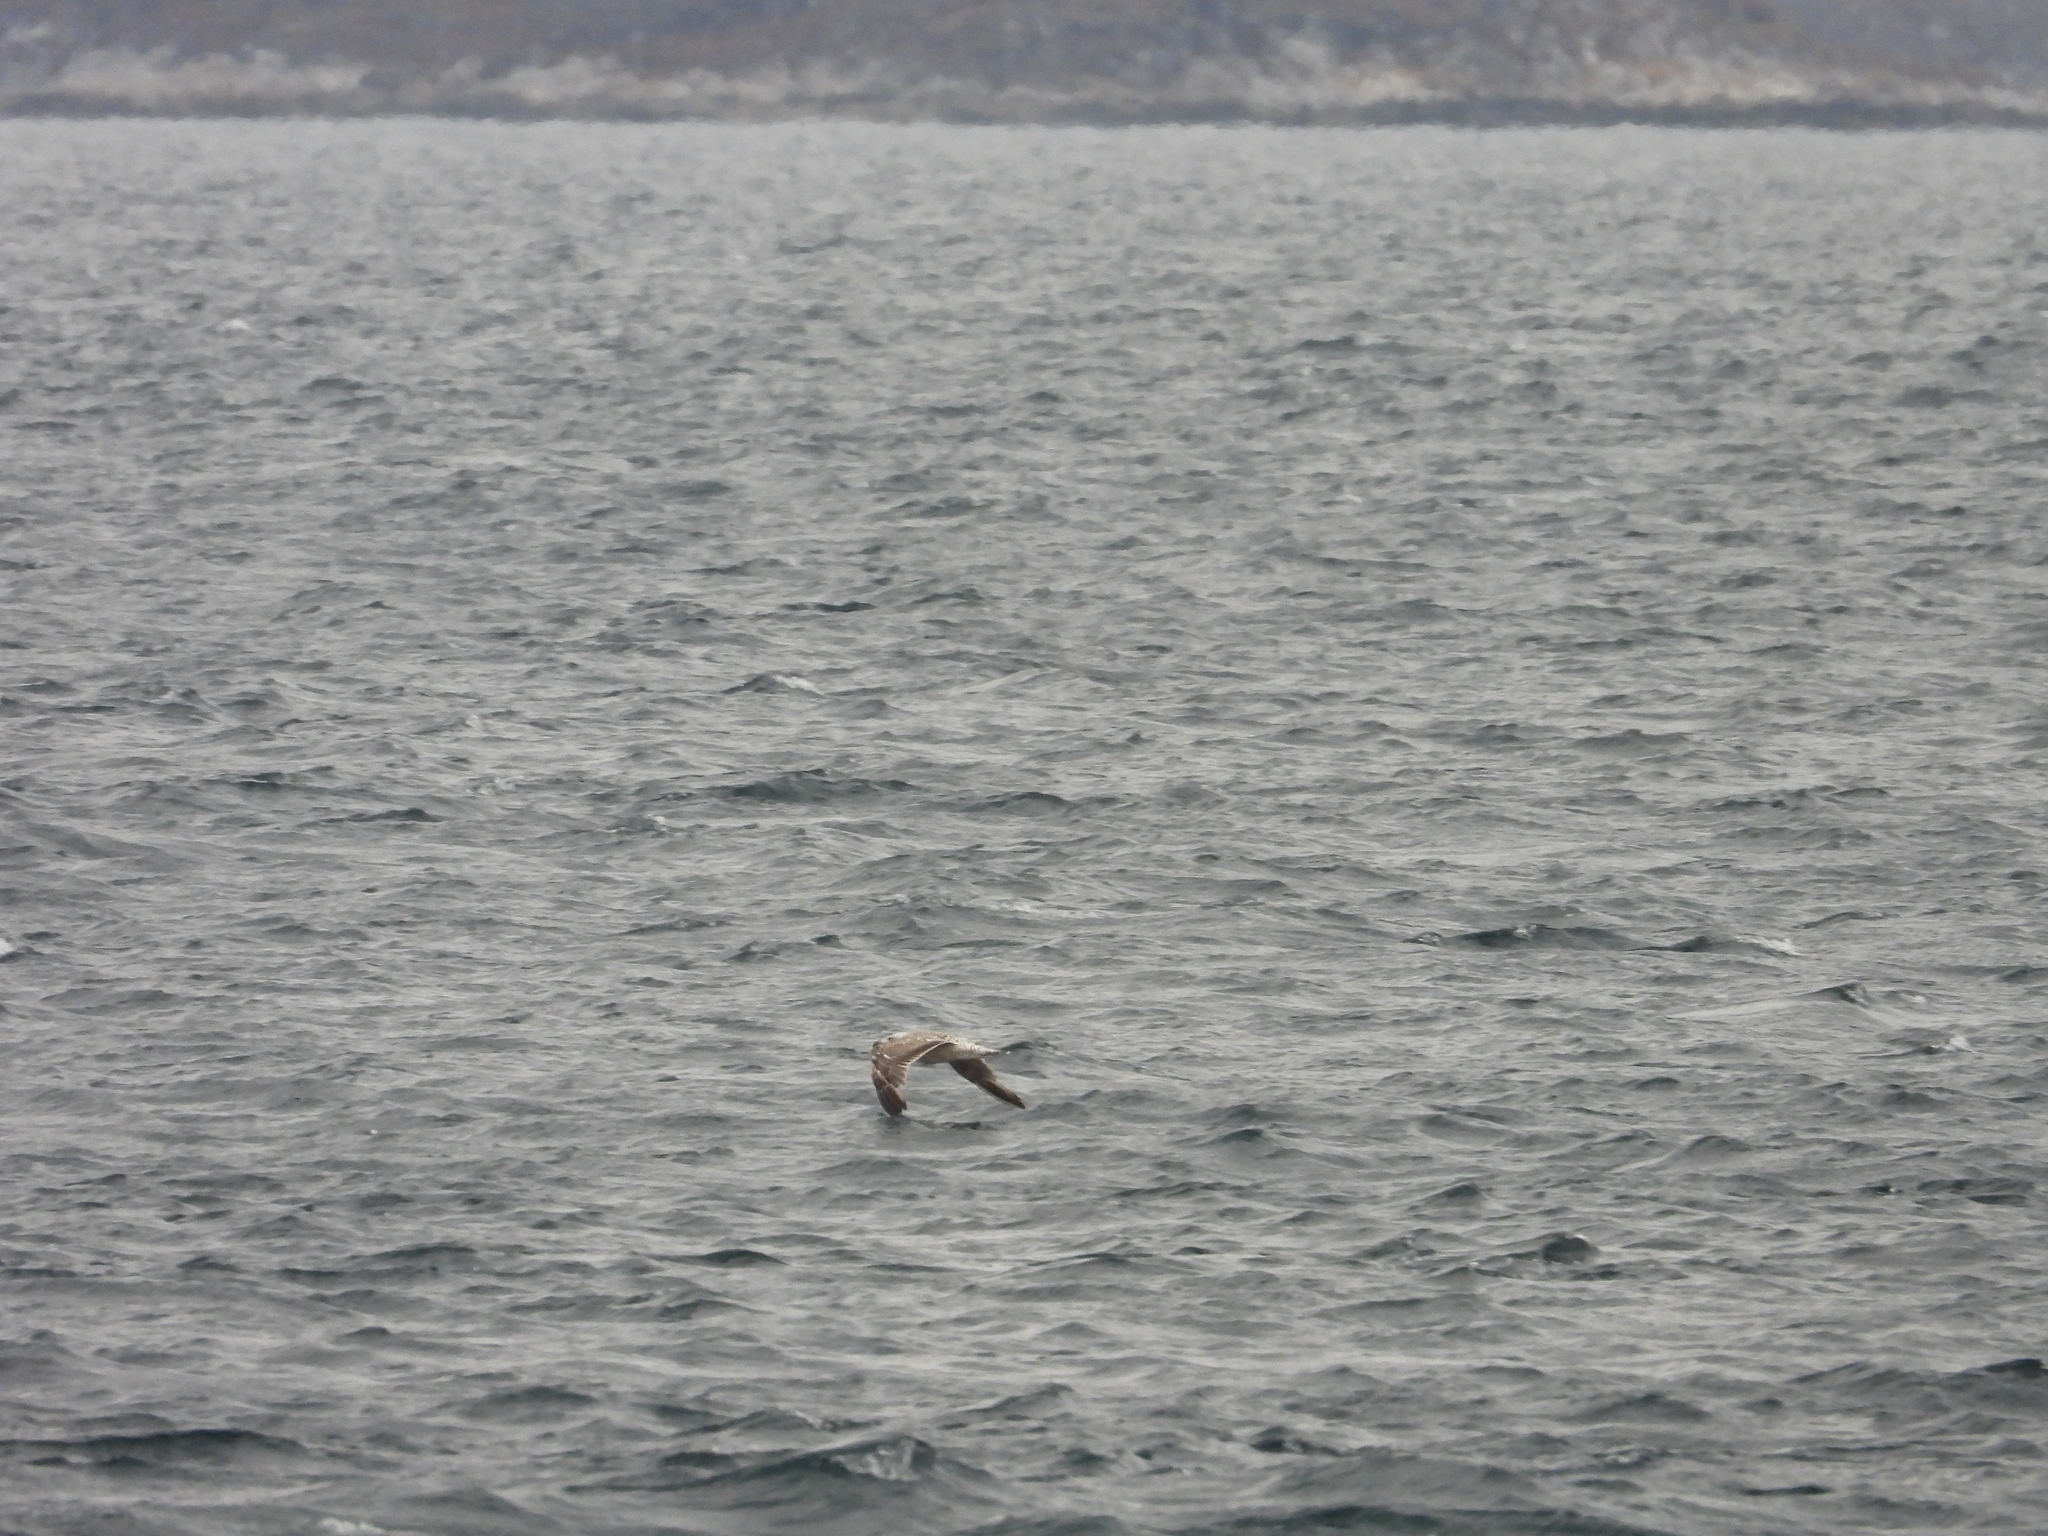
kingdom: Animalia
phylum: Chordata
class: Aves
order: Charadriiformes
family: Laridae
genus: Larus
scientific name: Larus marinus
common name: Great black-backed gull
